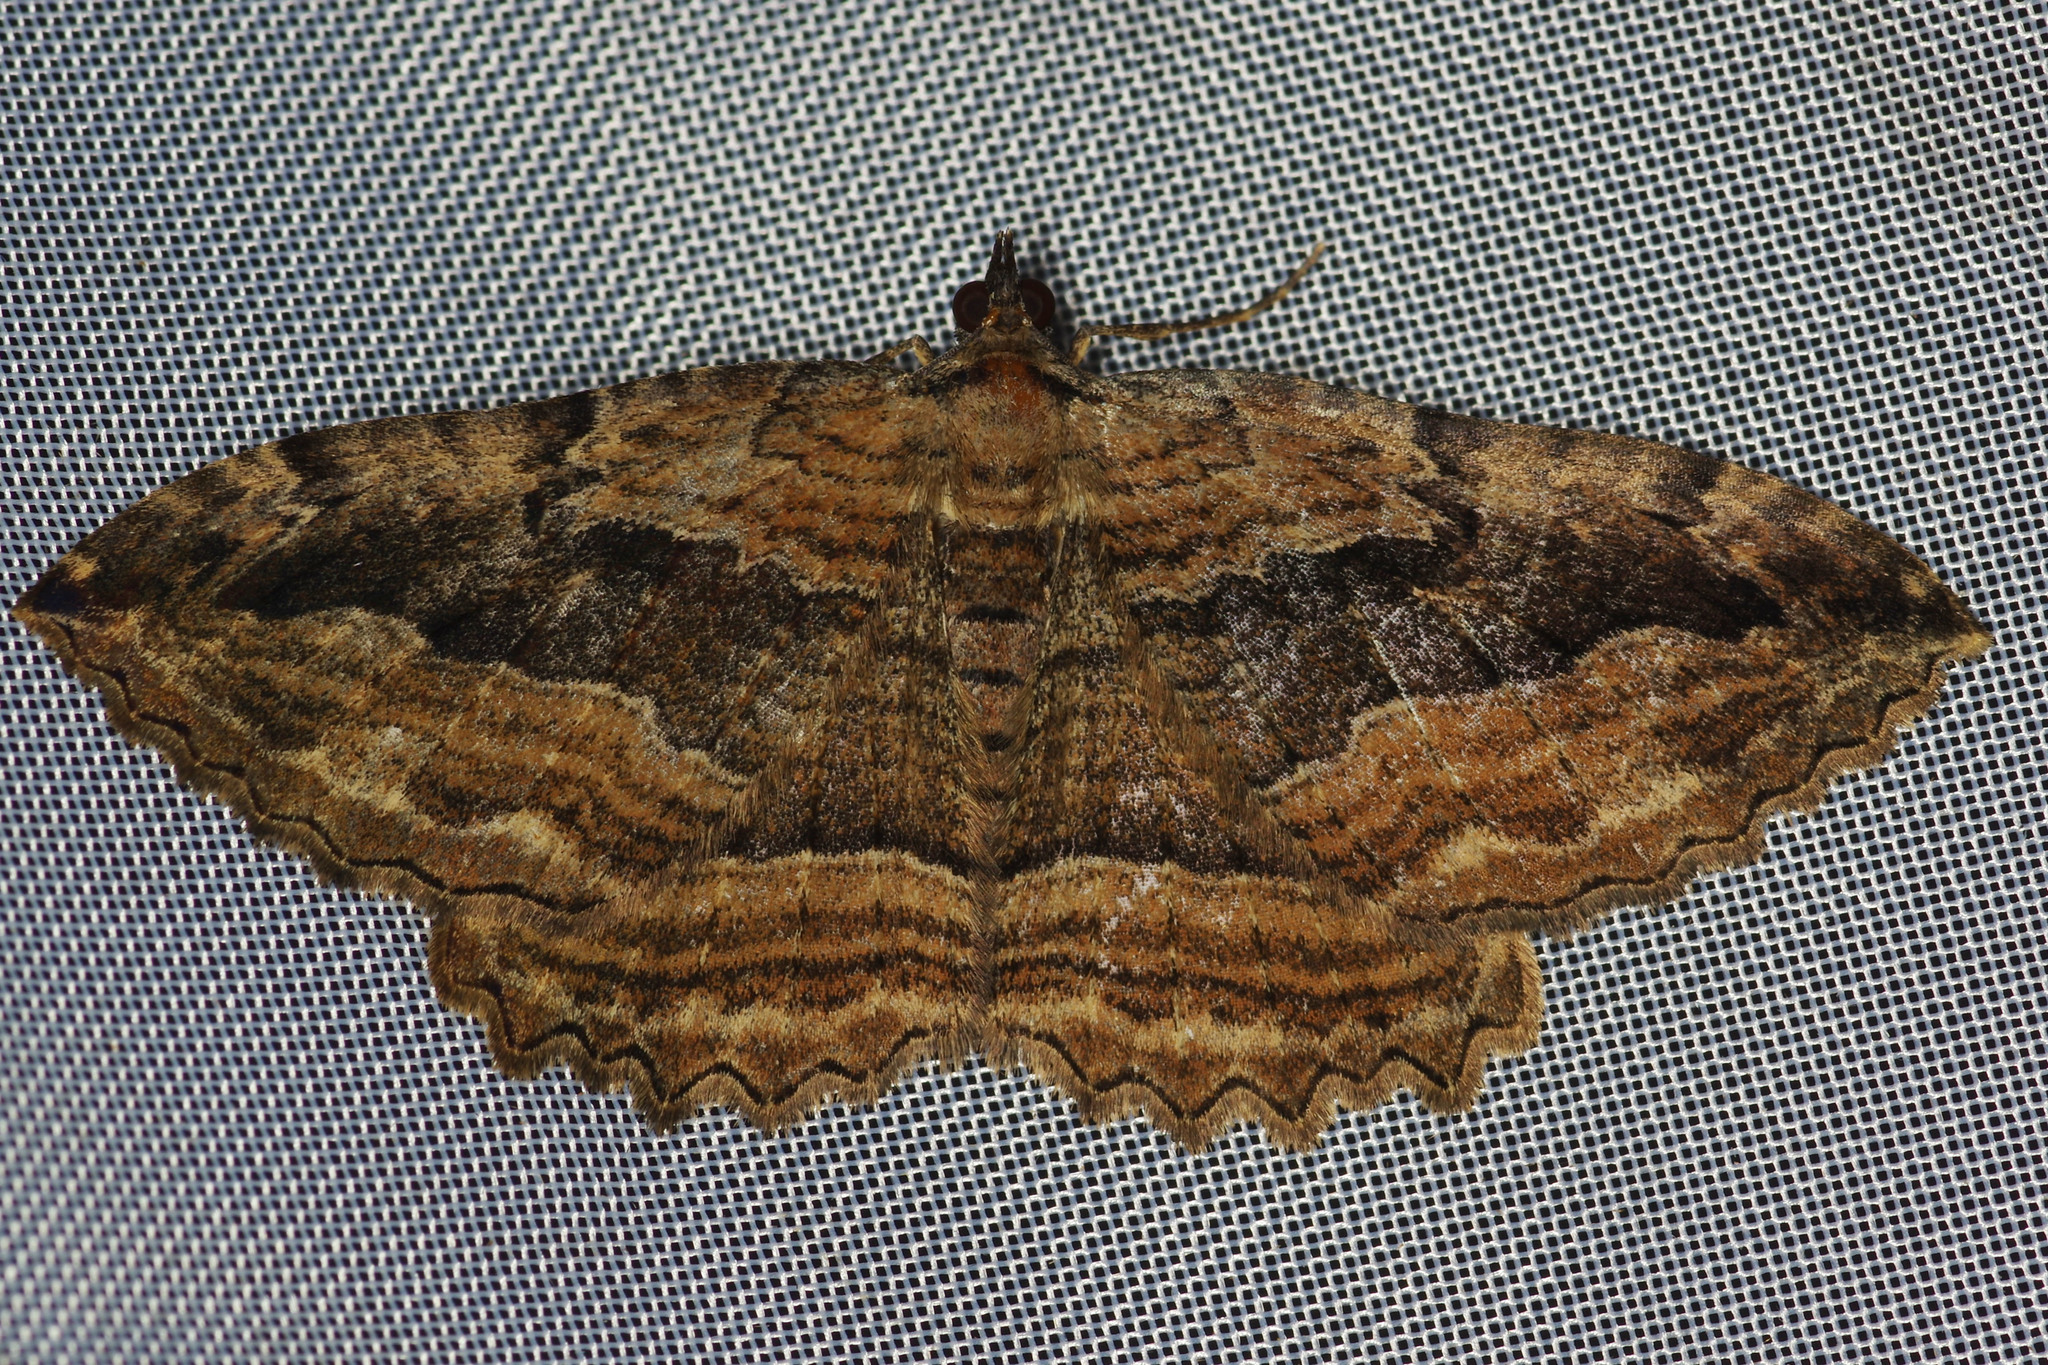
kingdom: Animalia
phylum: Arthropoda
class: Insecta
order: Lepidoptera
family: Geometridae
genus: Philereme
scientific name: Philereme transversata
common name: Dark umber
